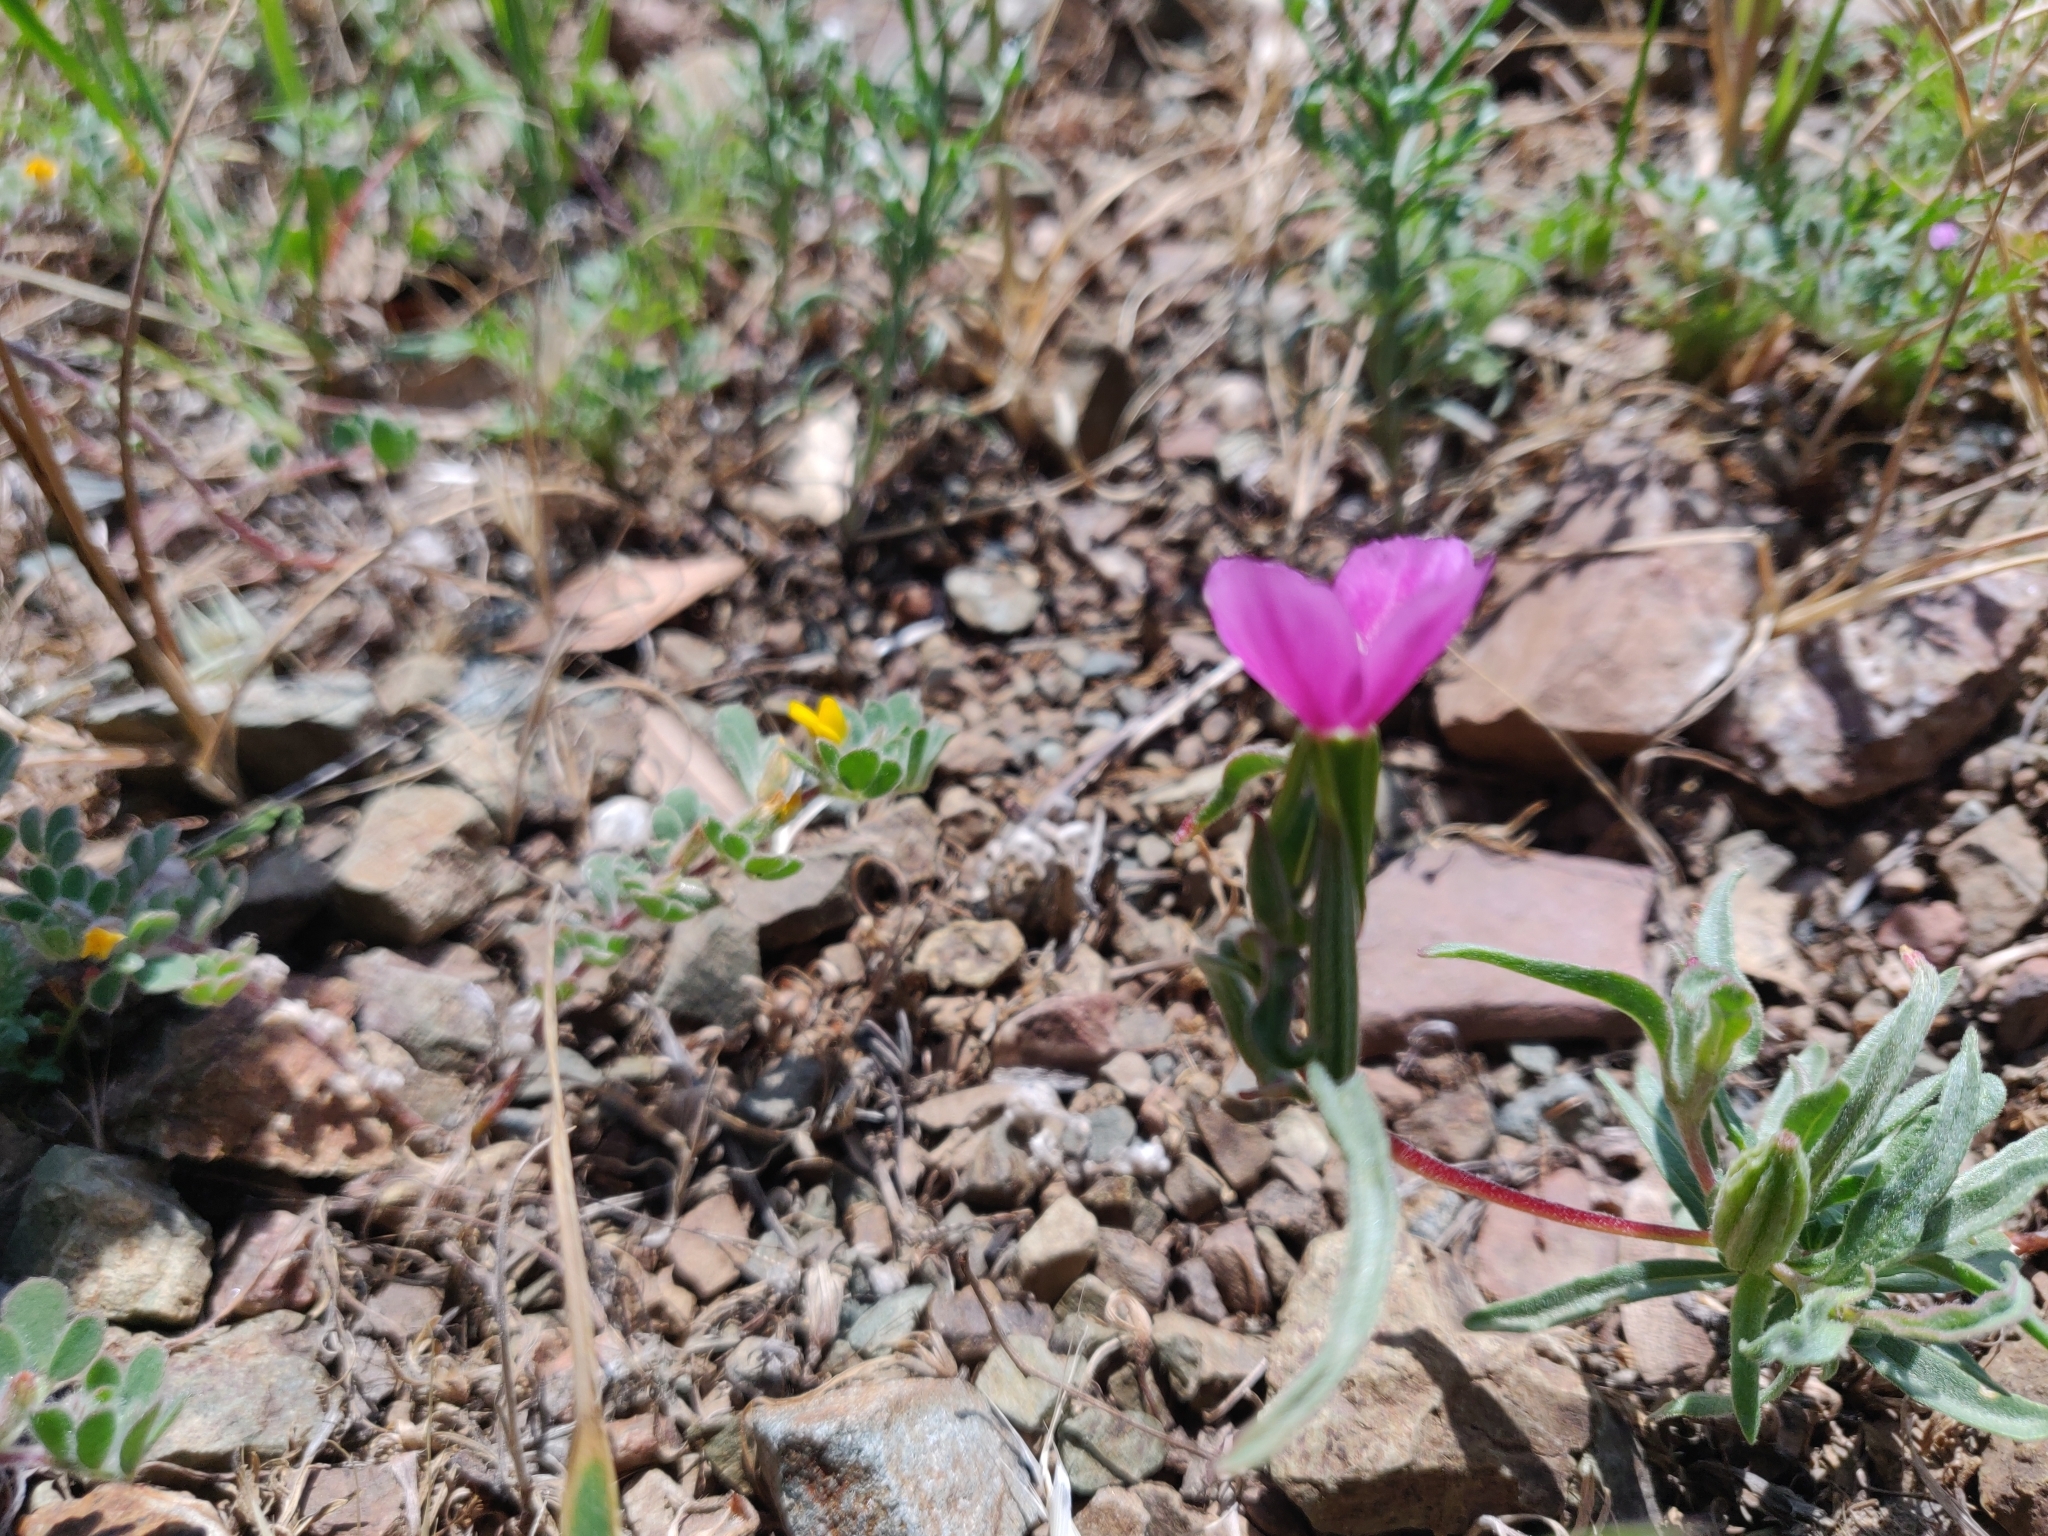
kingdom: Plantae
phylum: Tracheophyta
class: Magnoliopsida
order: Myrtales
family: Onagraceae
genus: Clarkia
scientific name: Clarkia purpurea
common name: Purple clarkia
